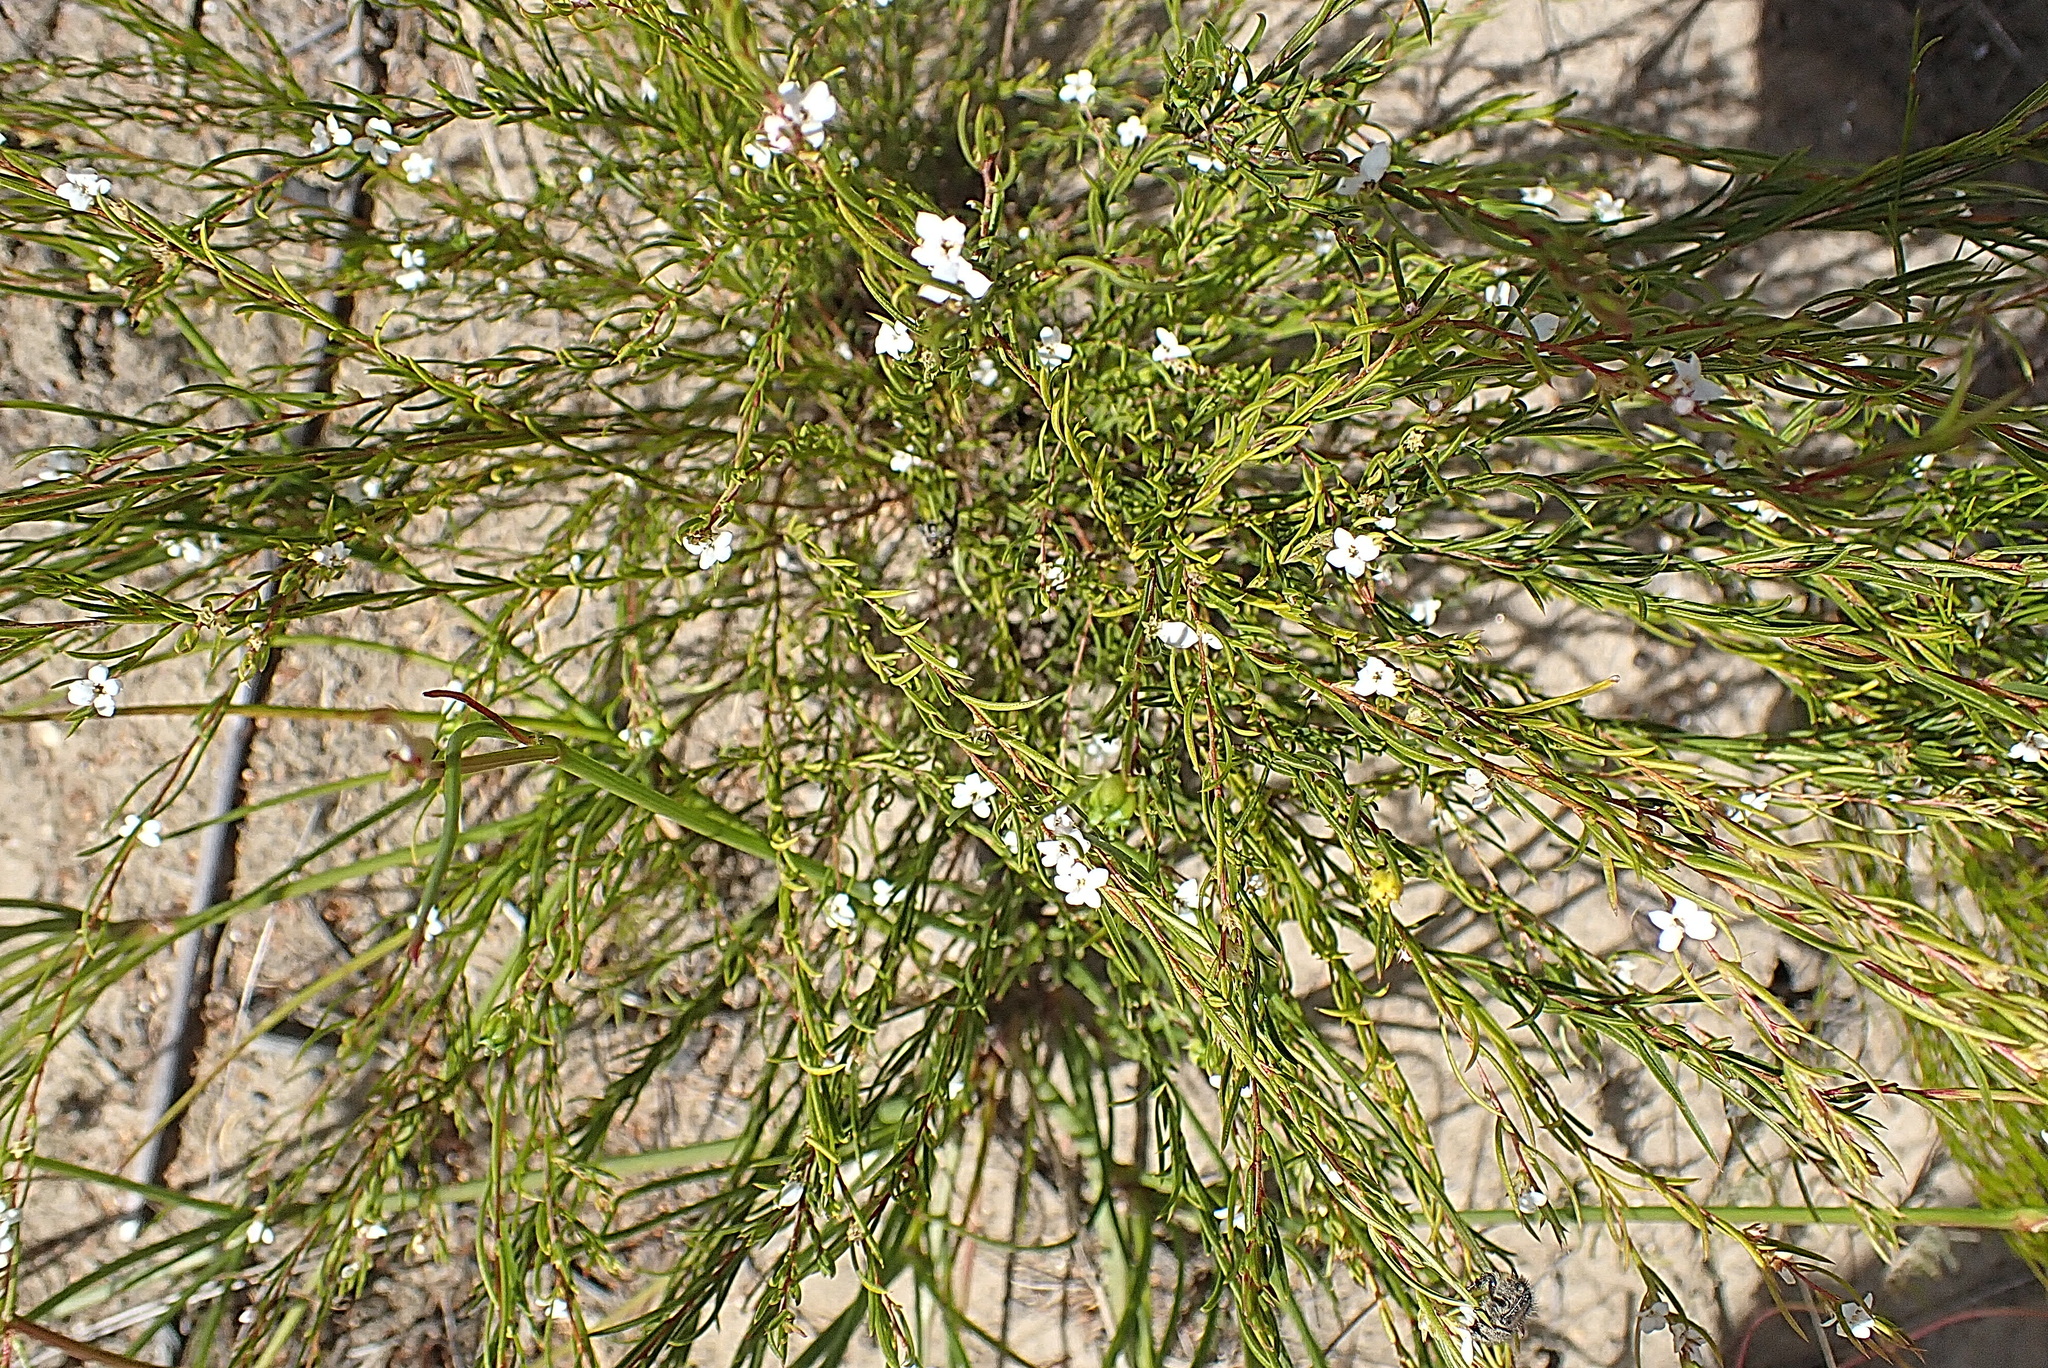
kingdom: Plantae
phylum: Tracheophyta
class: Magnoliopsida
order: Sapindales
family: Rutaceae
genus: Coleonema
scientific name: Coleonema virgatum
